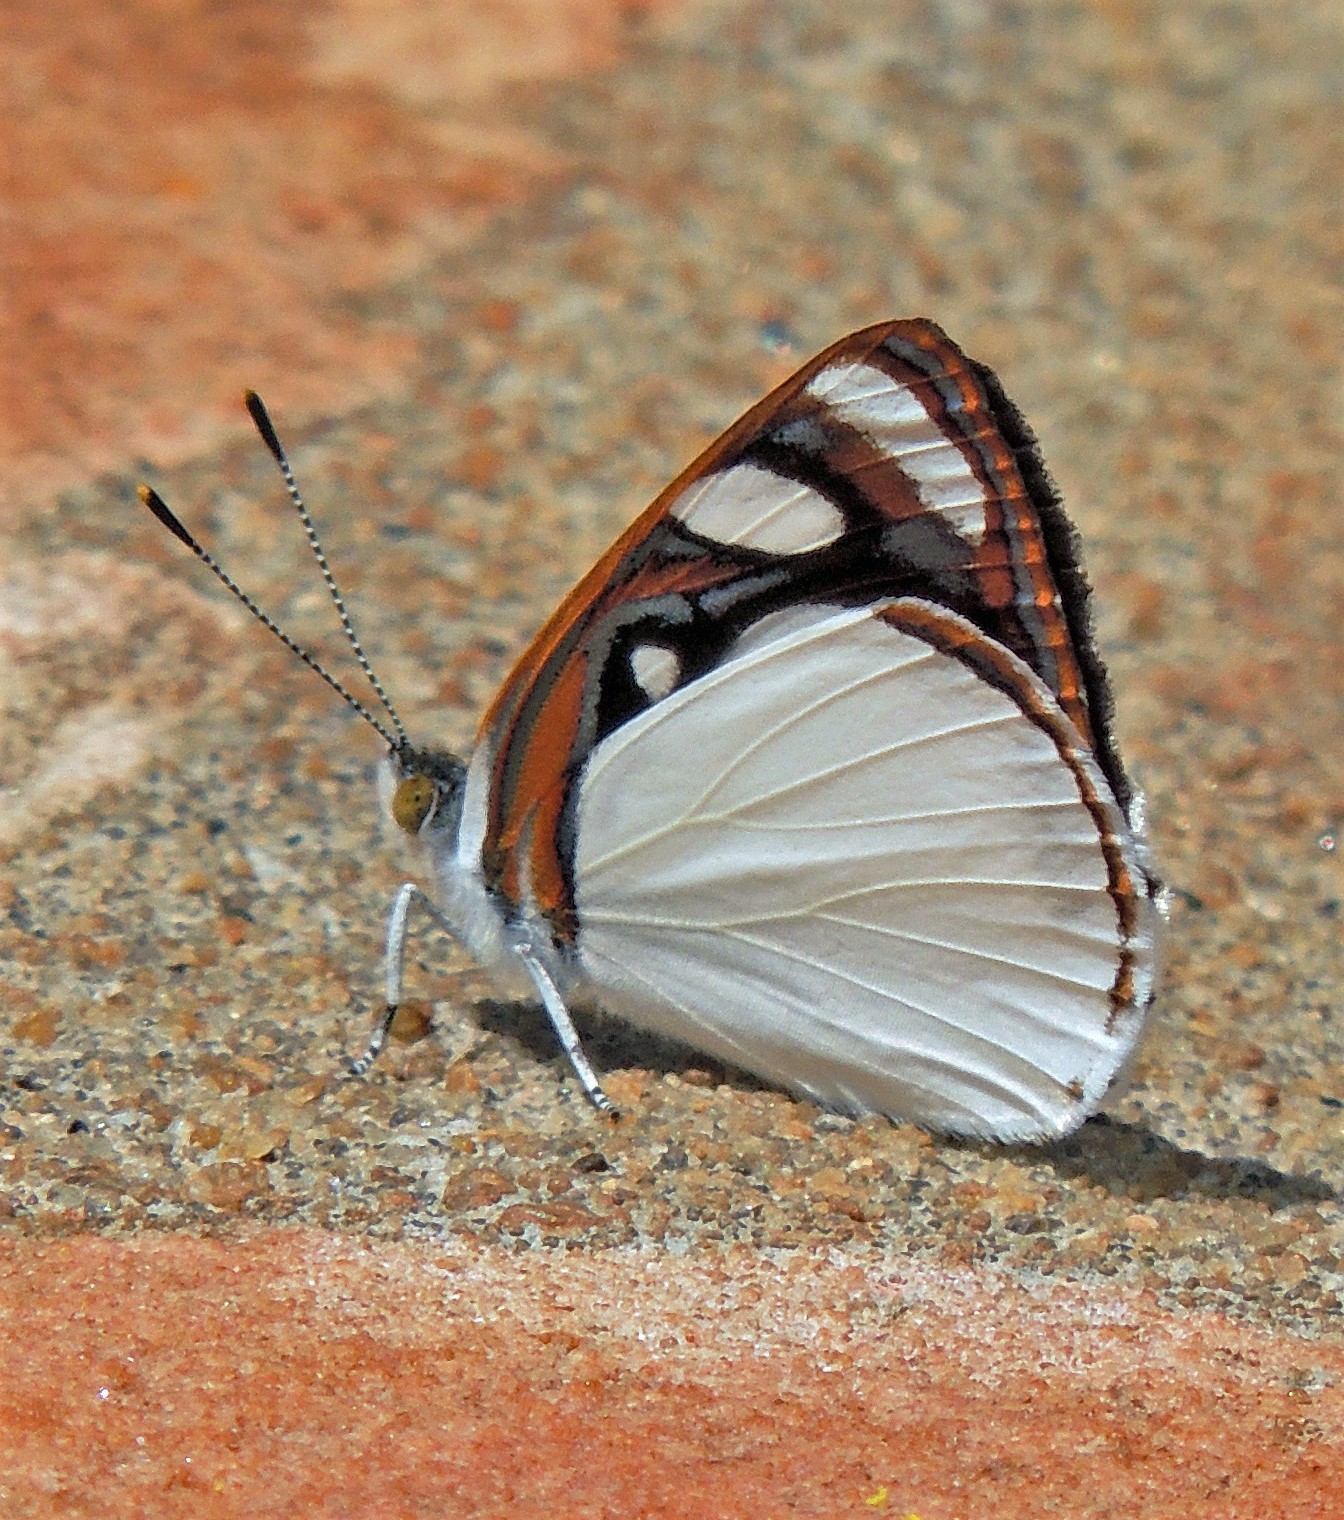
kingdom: Animalia
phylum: Arthropoda
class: Insecta
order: Lepidoptera
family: Nymphalidae
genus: Dynamine
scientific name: Dynamine coenus
